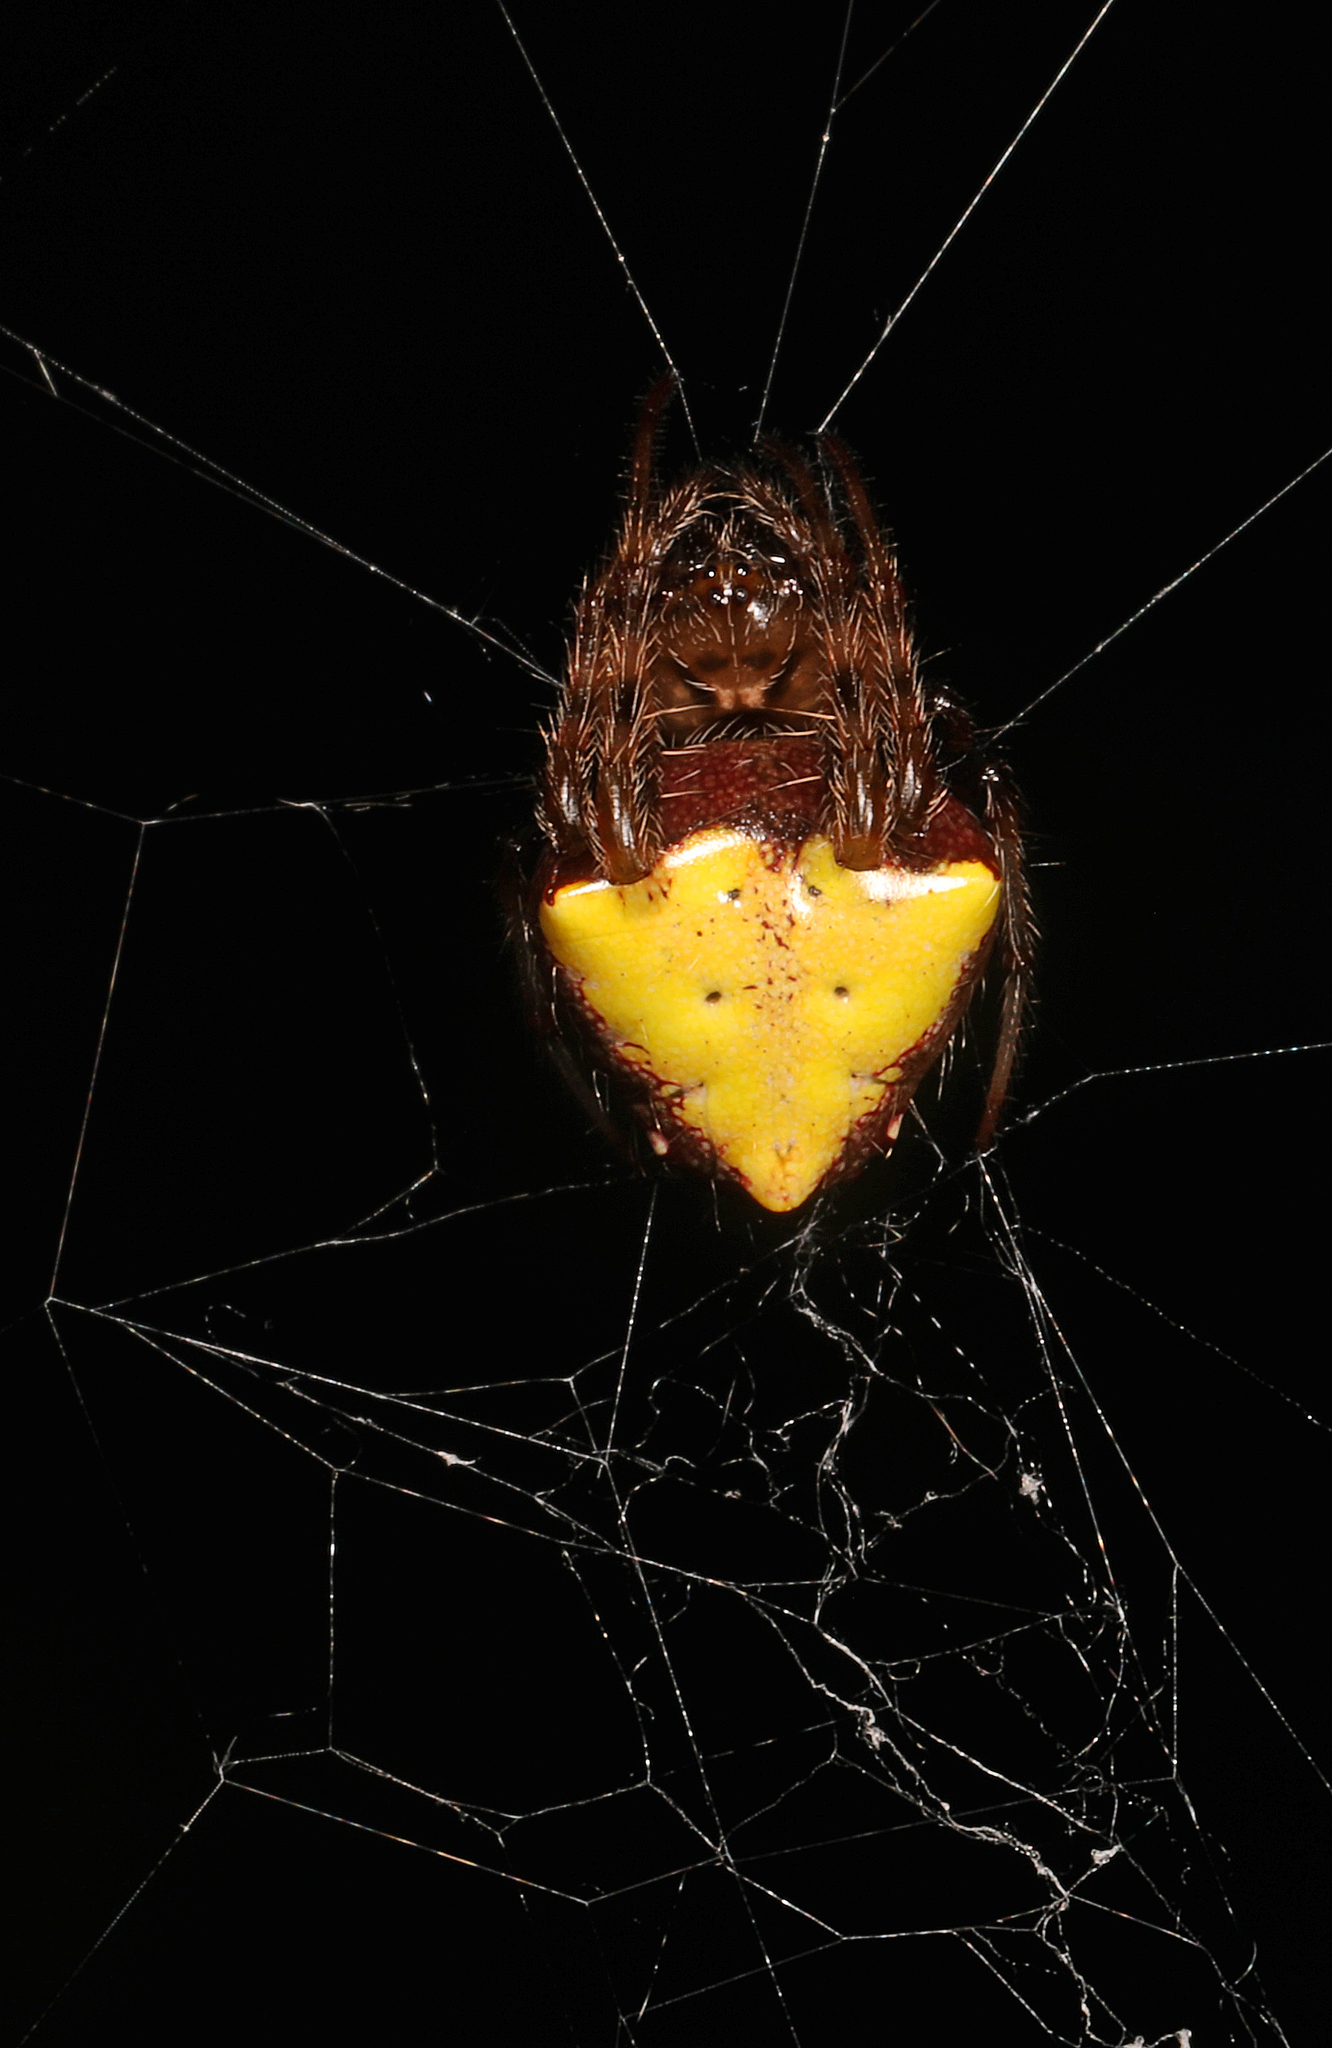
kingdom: Animalia
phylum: Arthropoda
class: Arachnida
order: Araneae
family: Araneidae
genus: Verrucosa
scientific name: Verrucosa arenata
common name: Orb weavers
